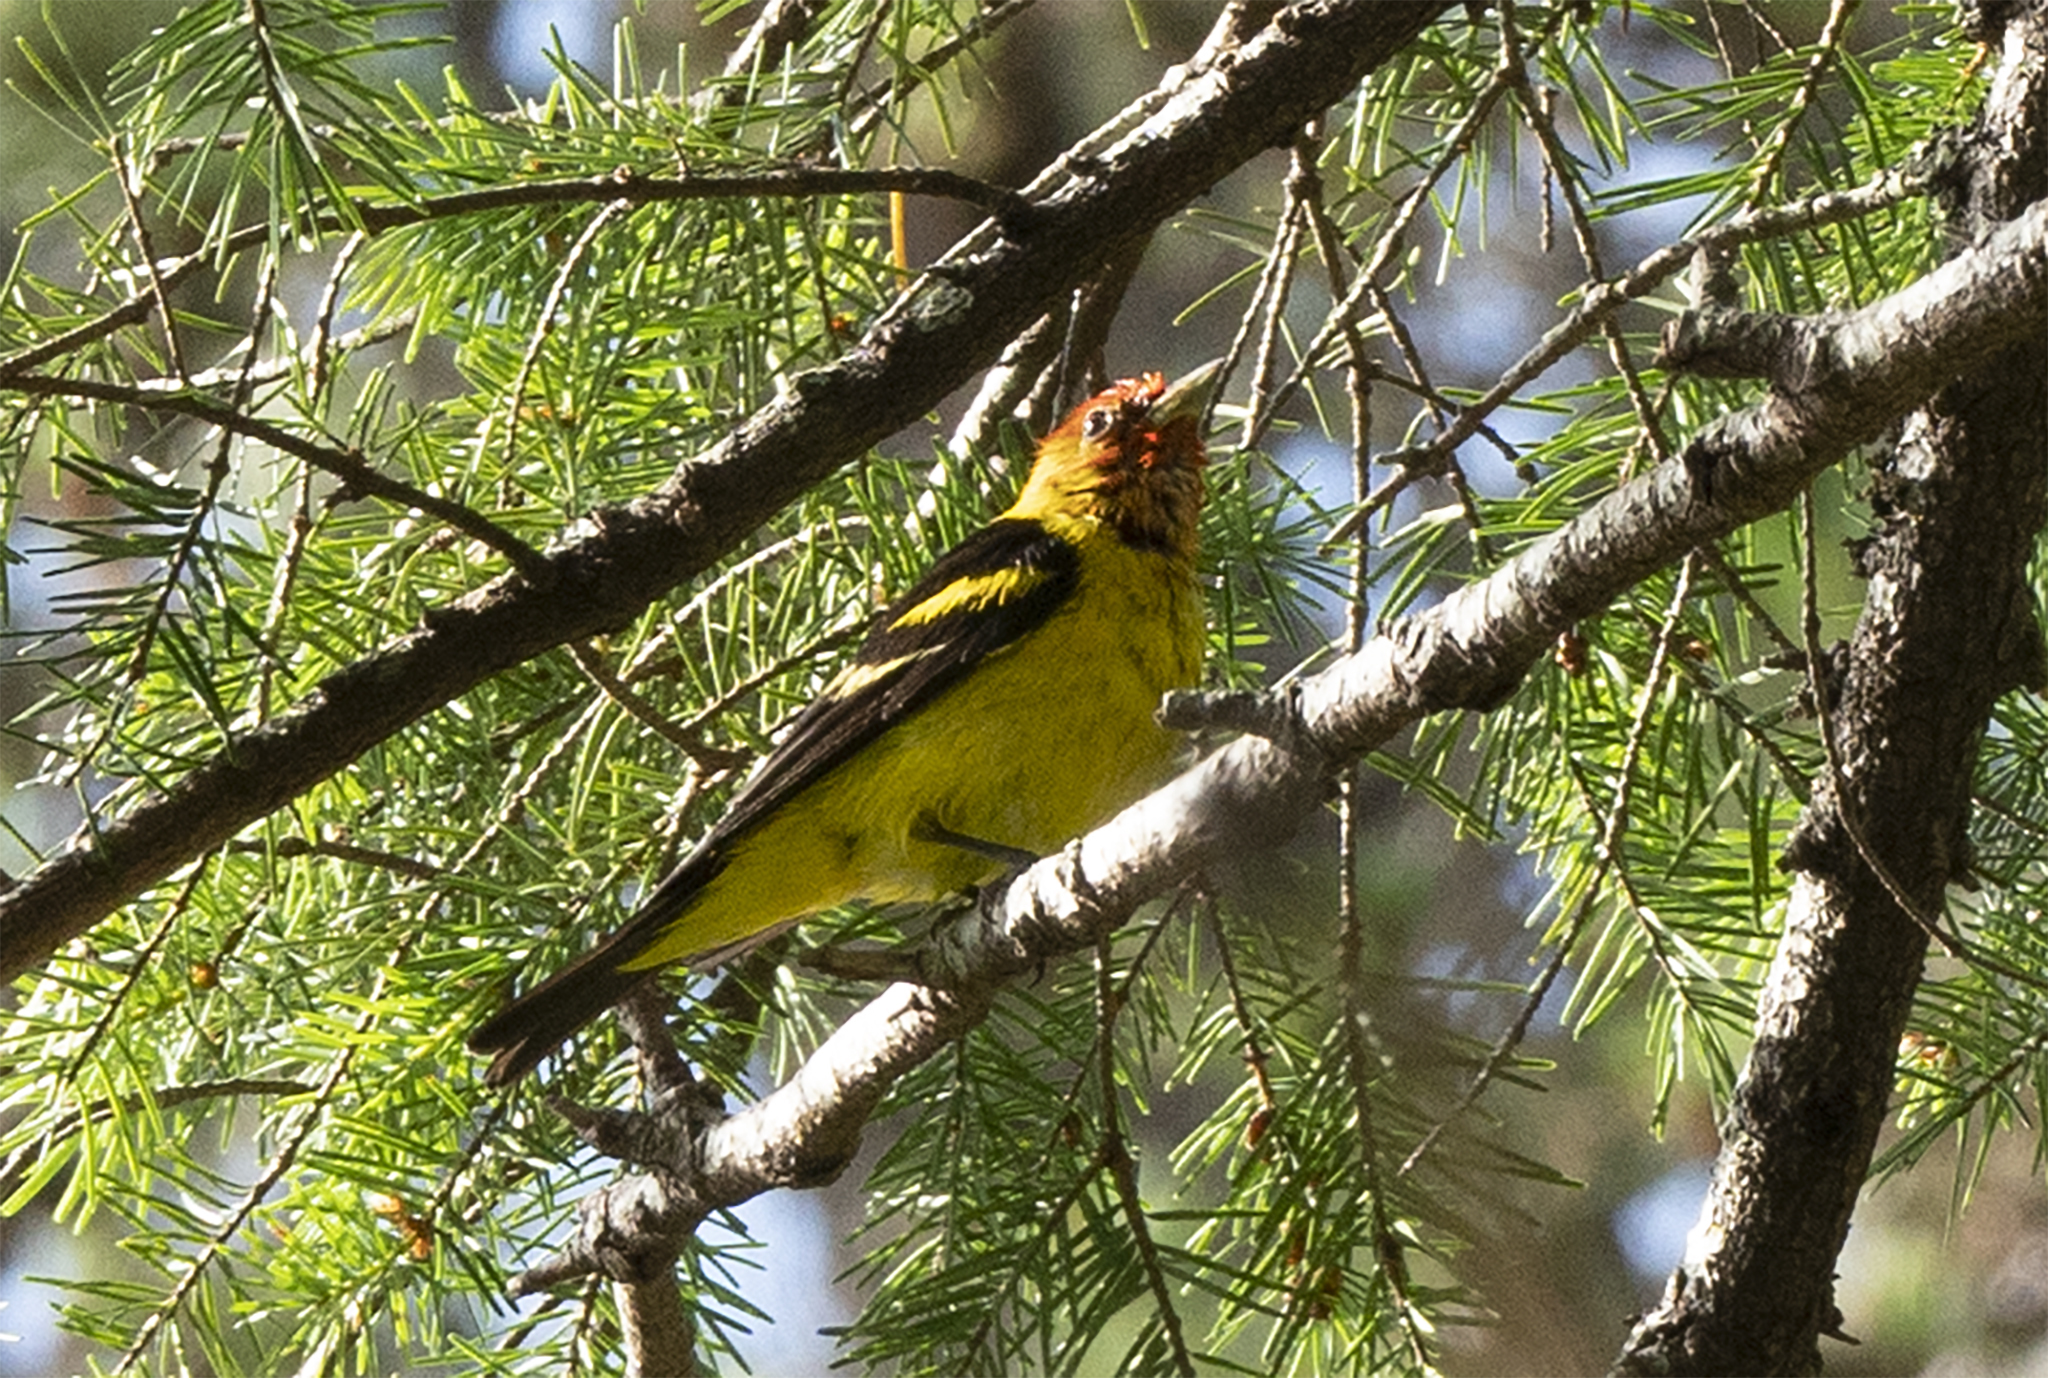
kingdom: Animalia
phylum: Chordata
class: Aves
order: Passeriformes
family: Cardinalidae
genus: Piranga
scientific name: Piranga ludoviciana
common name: Western tanager
